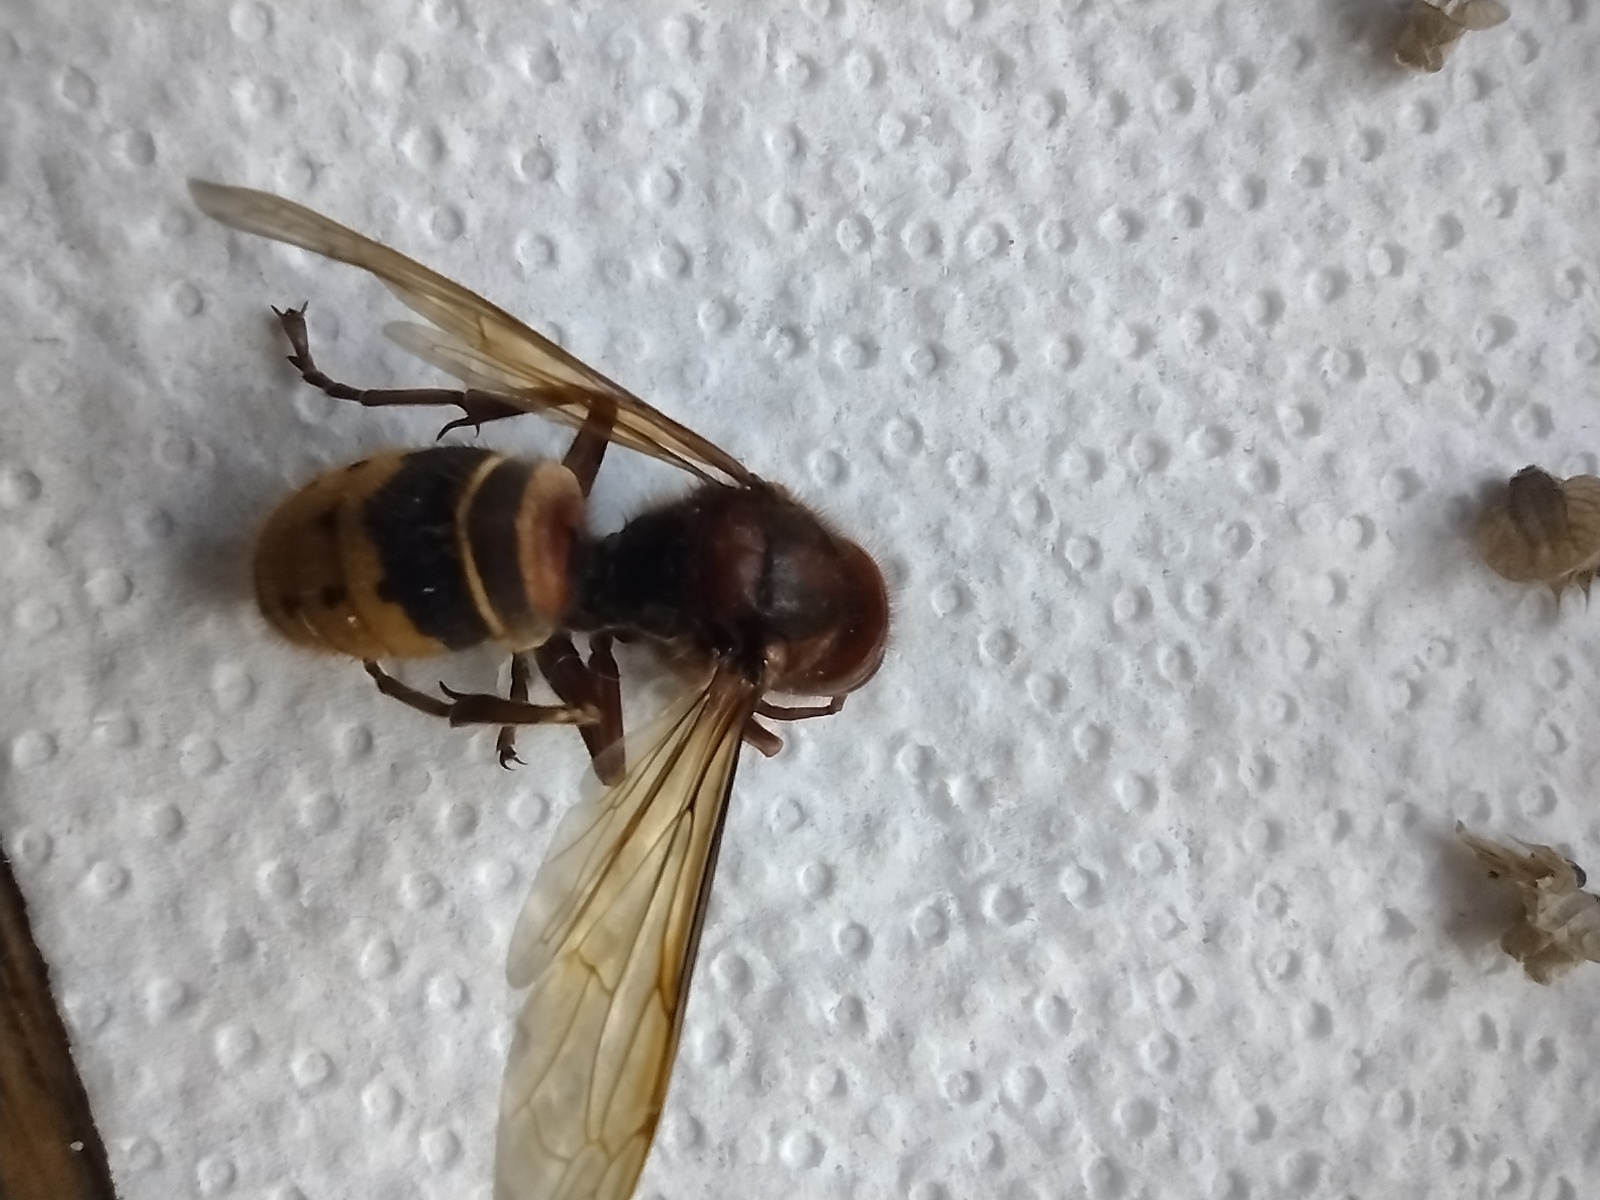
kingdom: Animalia
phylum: Arthropoda
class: Insecta
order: Hymenoptera
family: Vespidae
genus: Vespa
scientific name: Vespa crabro
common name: Hornet
